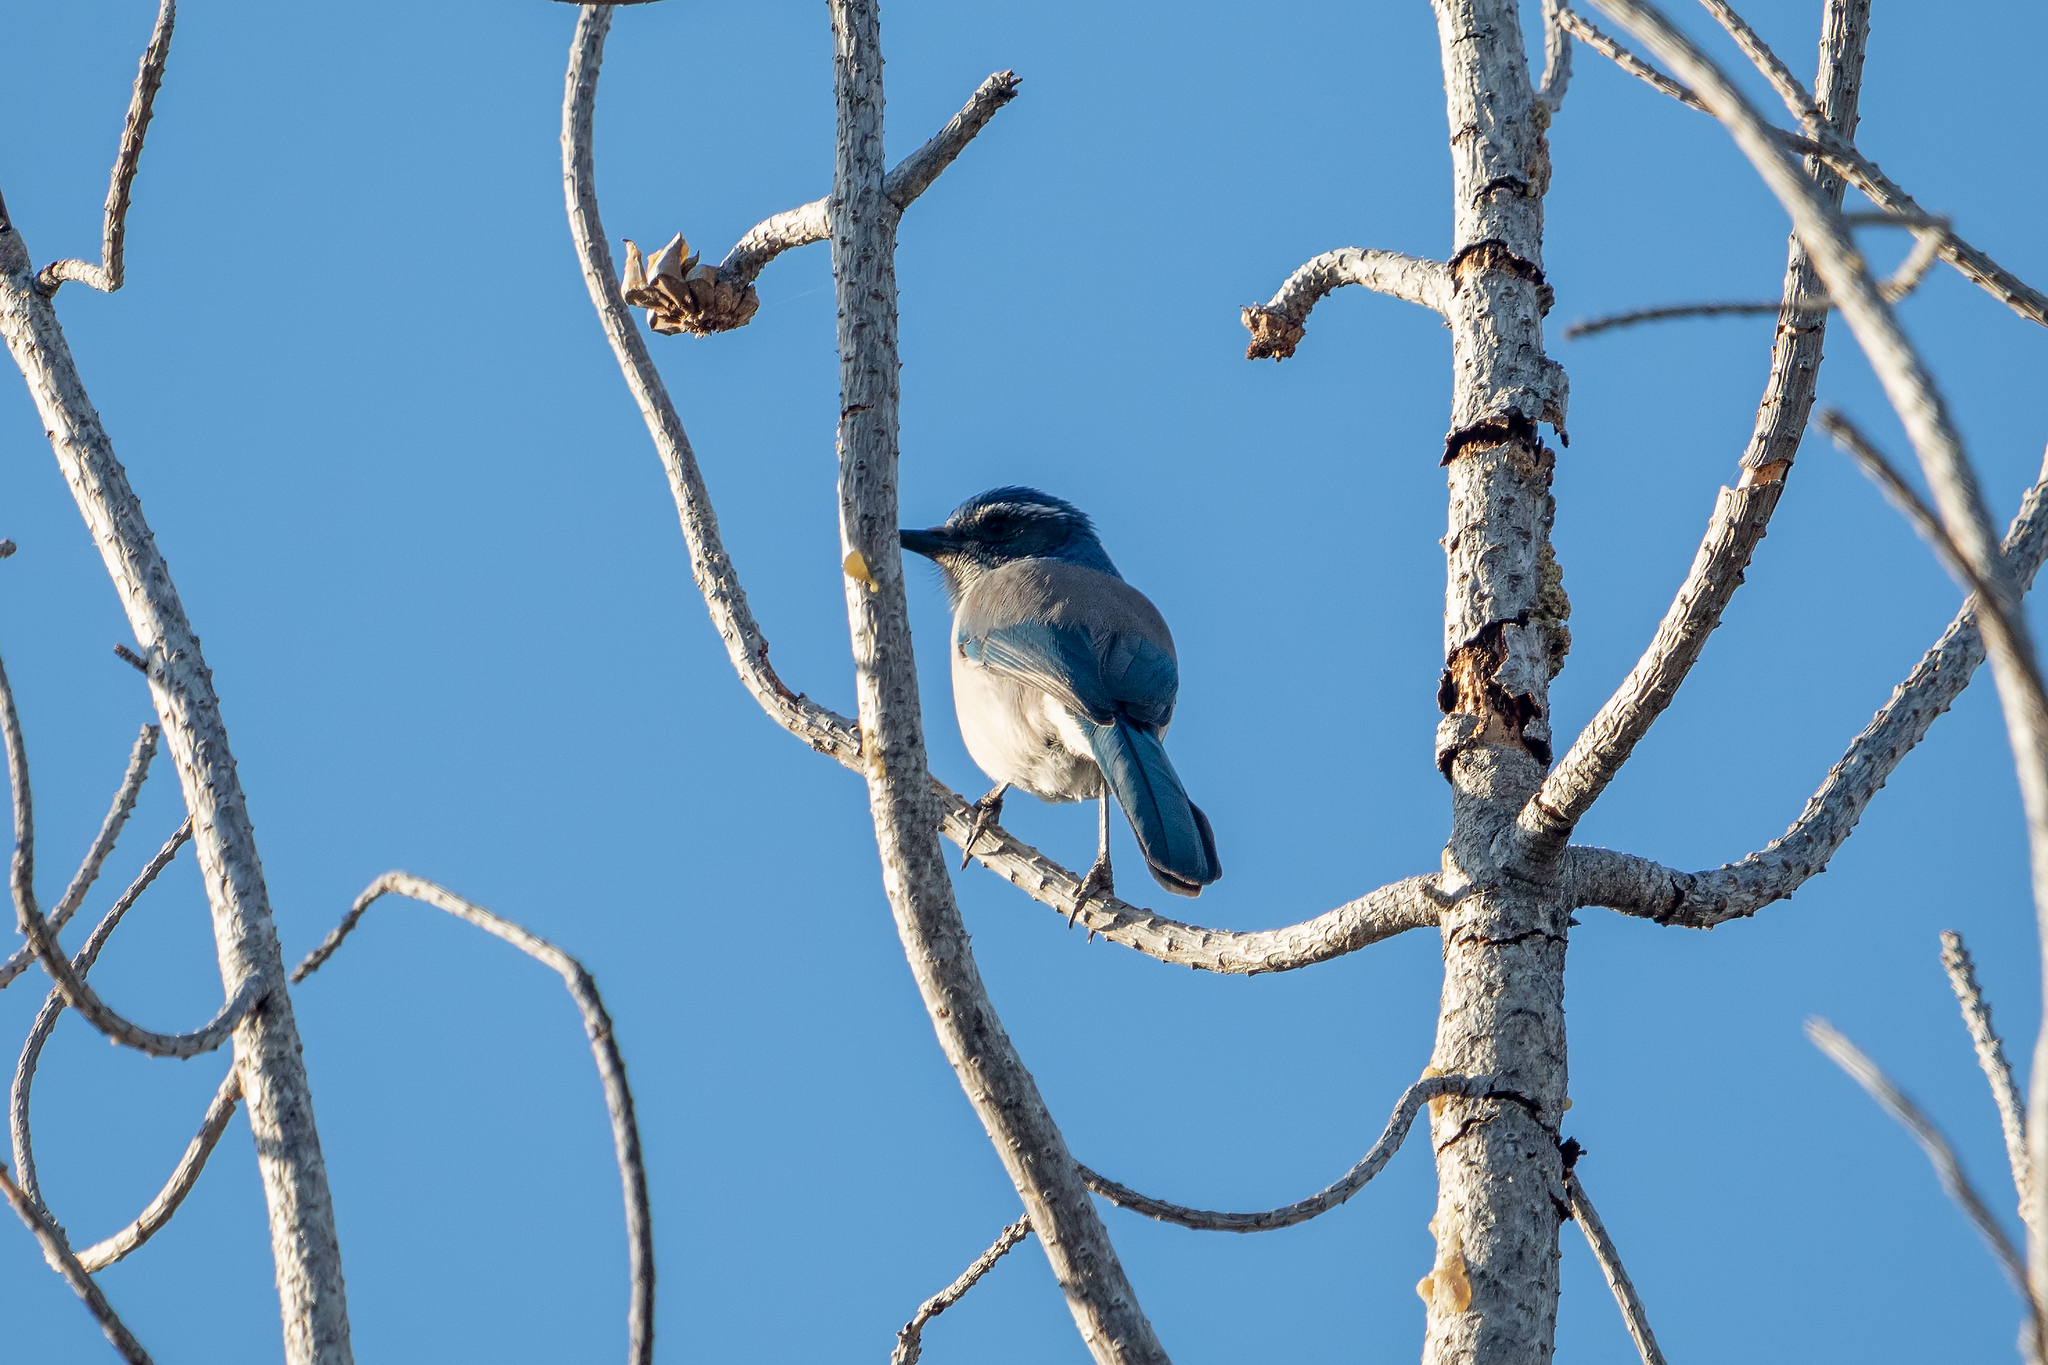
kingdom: Animalia
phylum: Chordata
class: Aves
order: Passeriformes
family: Corvidae
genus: Aphelocoma
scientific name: Aphelocoma californica
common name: California scrub-jay
